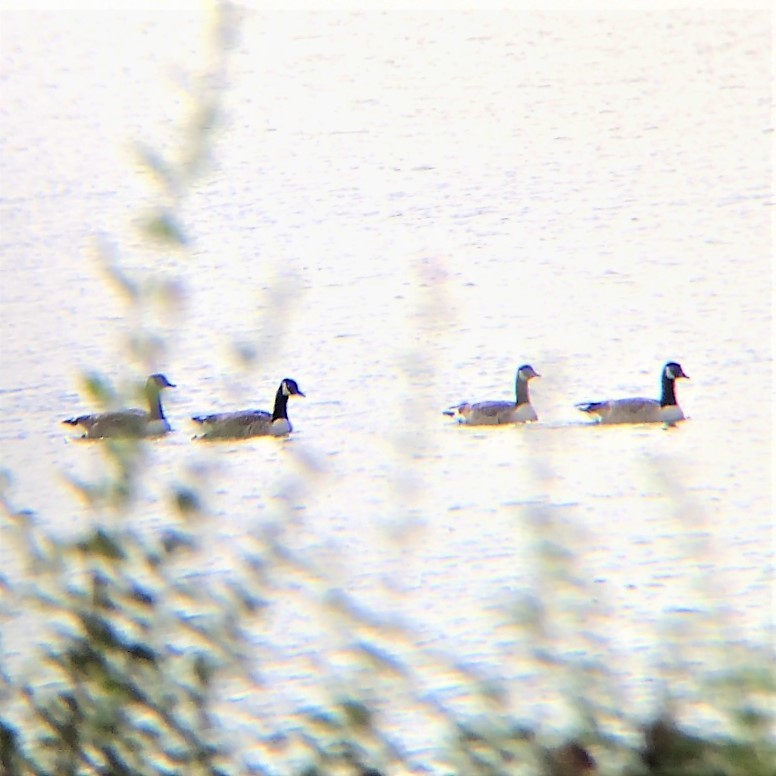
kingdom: Animalia
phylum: Chordata
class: Aves
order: Anseriformes
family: Anatidae
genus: Branta
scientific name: Branta canadensis
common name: Canada goose
